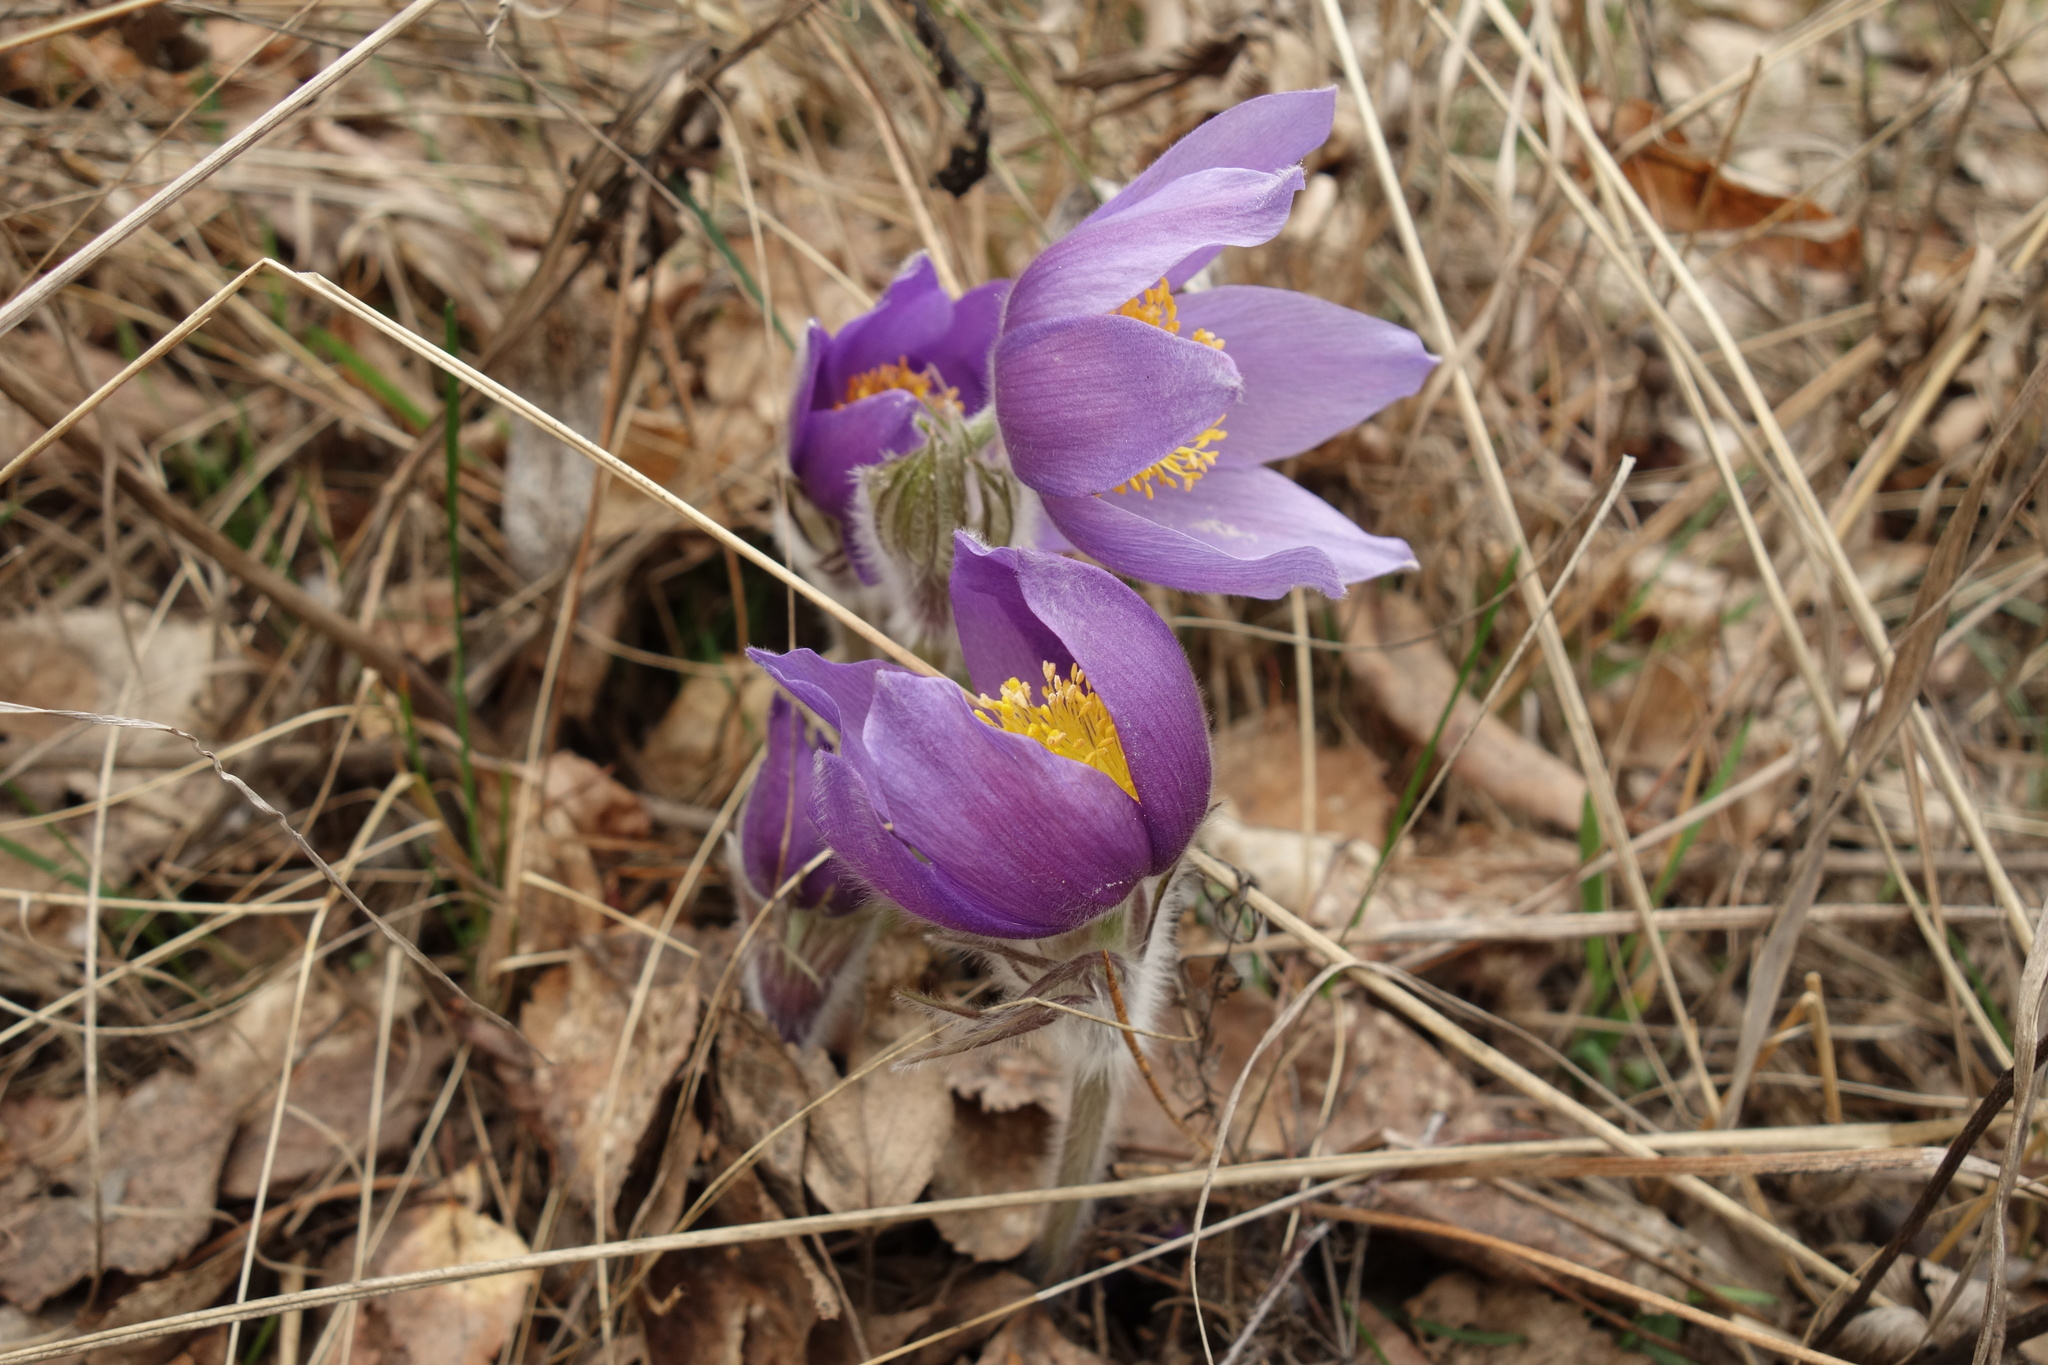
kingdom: Plantae
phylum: Tracheophyta
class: Magnoliopsida
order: Ranunculales
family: Ranunculaceae
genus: Pulsatilla
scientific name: Pulsatilla patens
